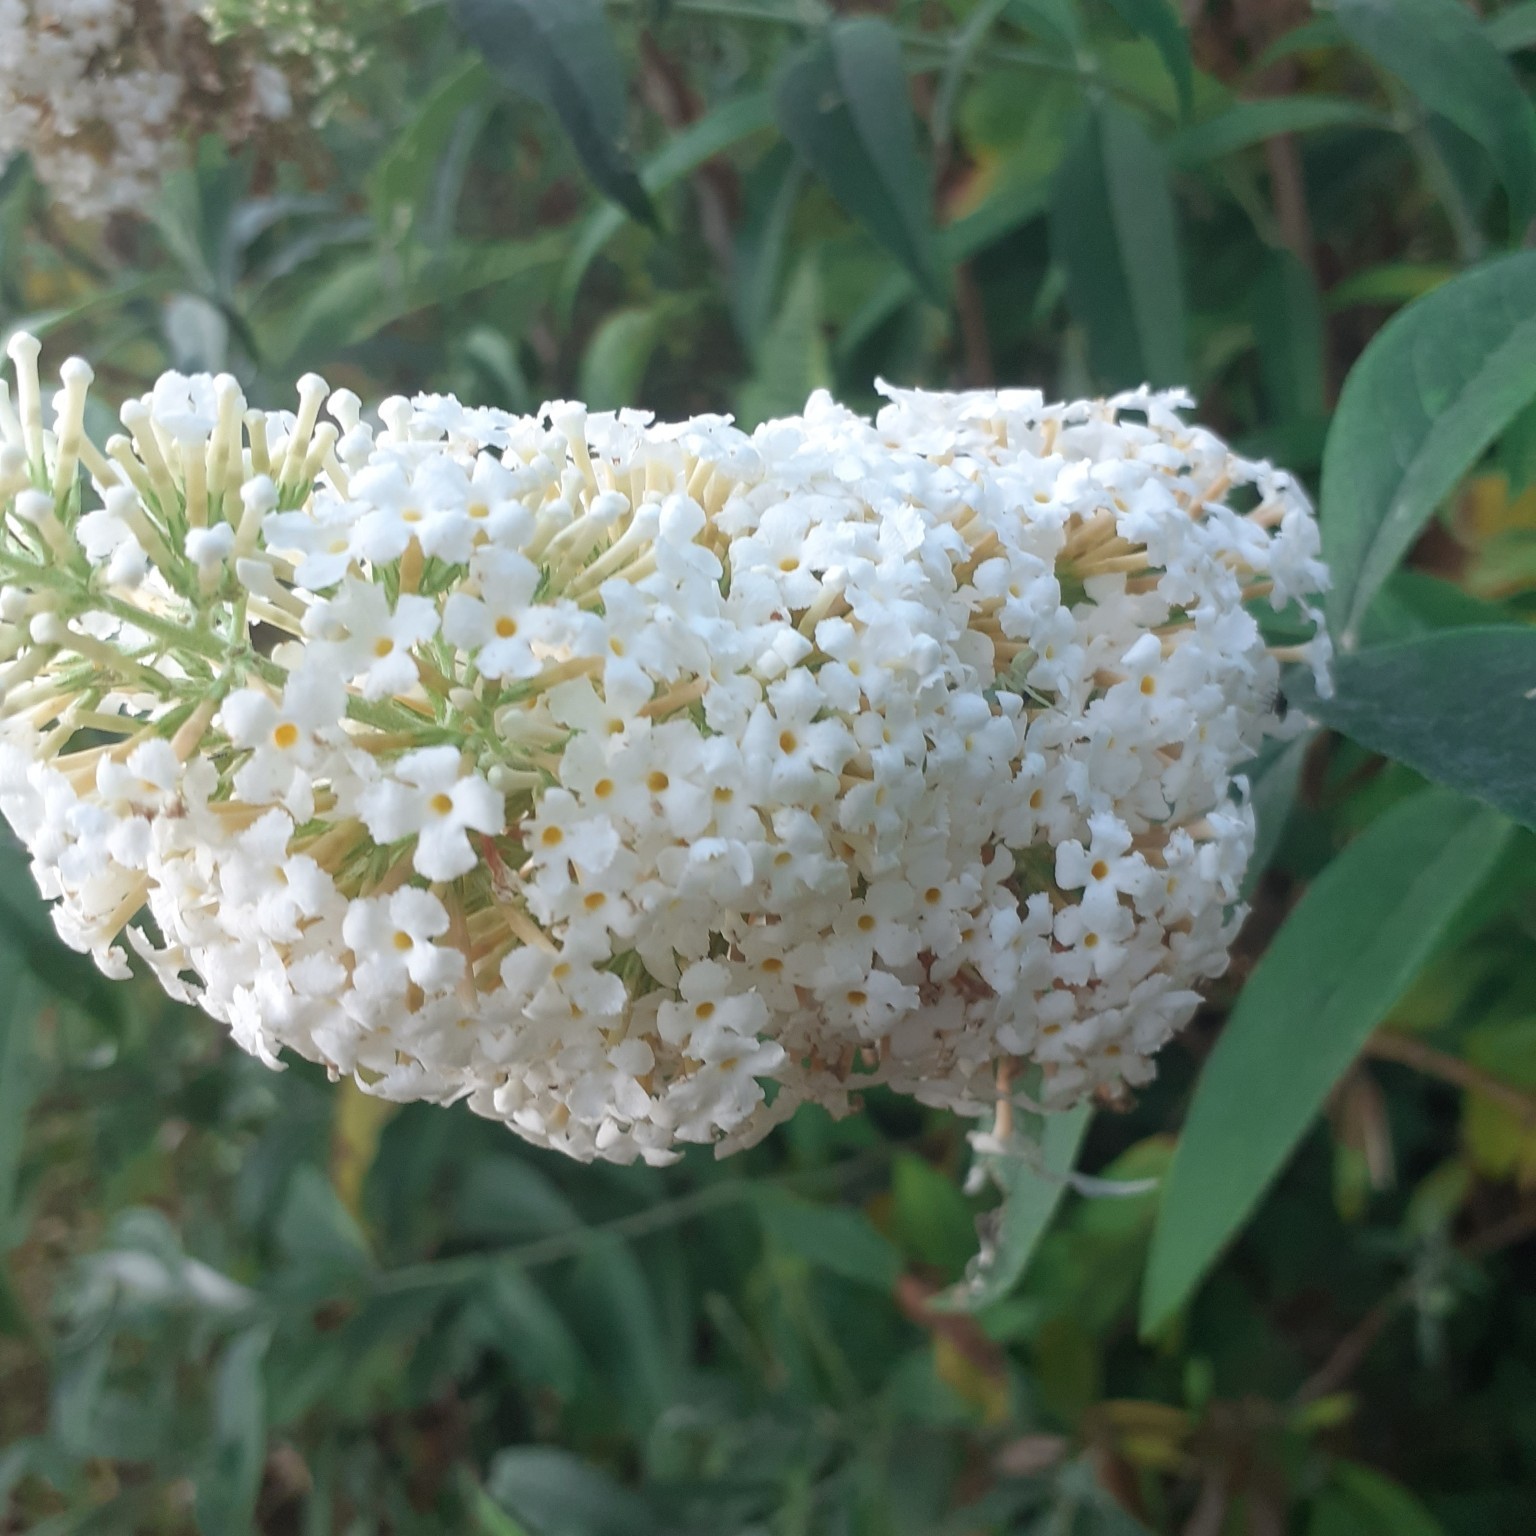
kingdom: Plantae
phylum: Tracheophyta
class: Magnoliopsida
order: Lamiales
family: Scrophulariaceae
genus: Buddleja
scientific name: Buddleja davidii
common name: Butterfly-bush
